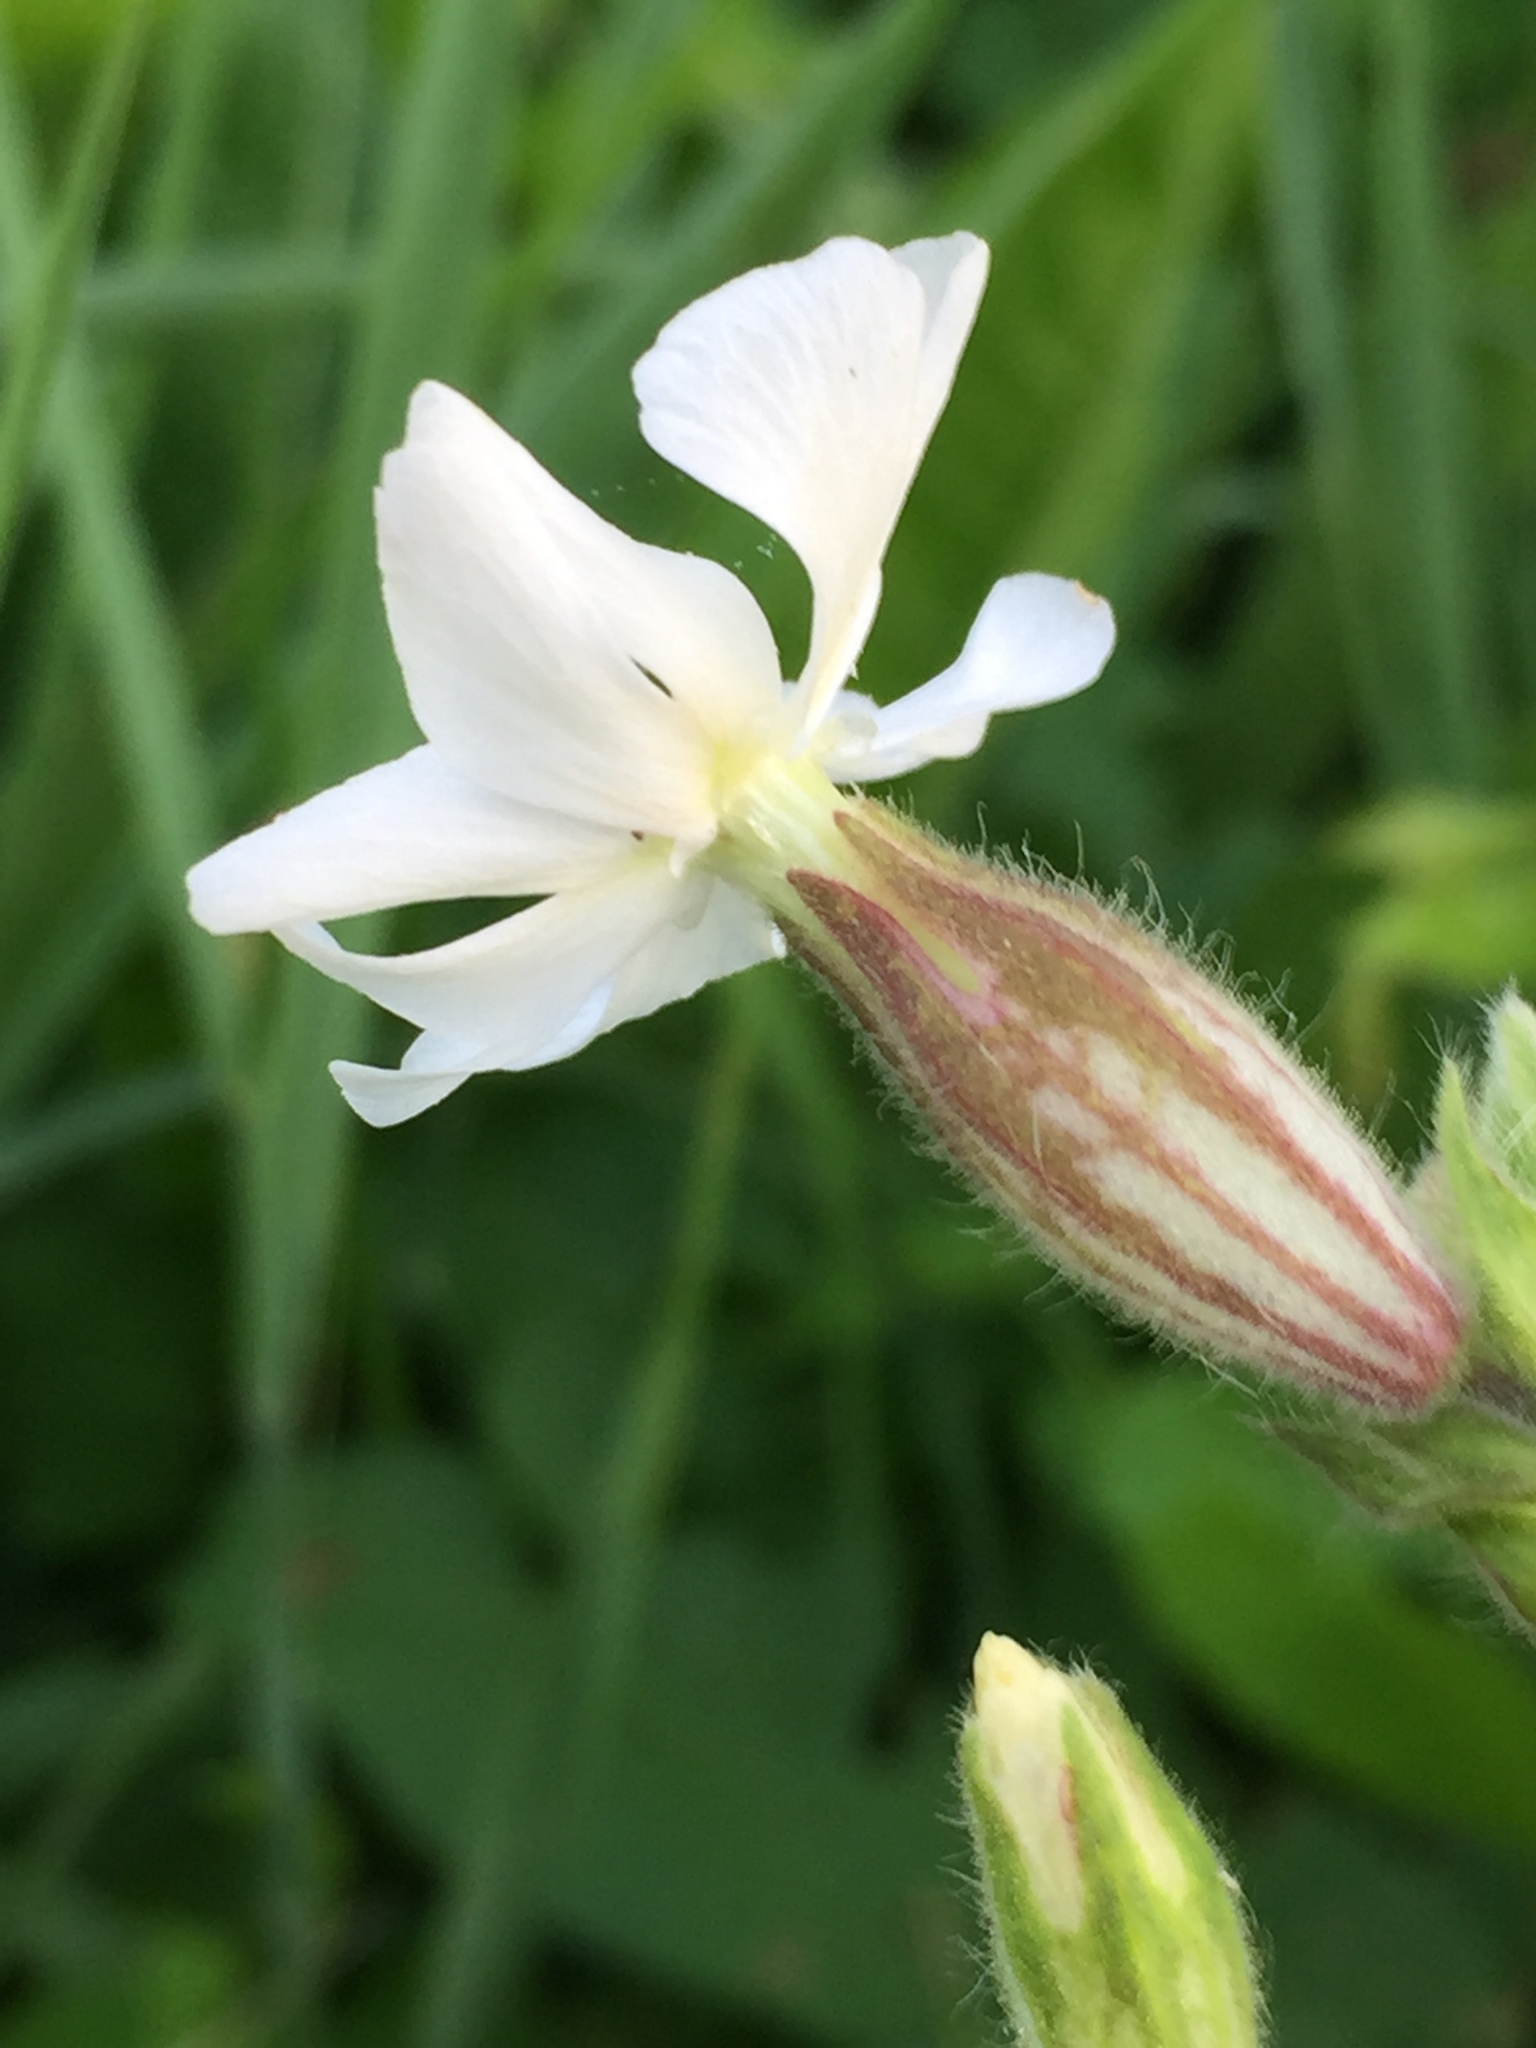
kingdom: Plantae
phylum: Tracheophyta
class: Magnoliopsida
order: Caryophyllales
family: Caryophyllaceae
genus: Silene
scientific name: Silene latifolia
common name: White campion
